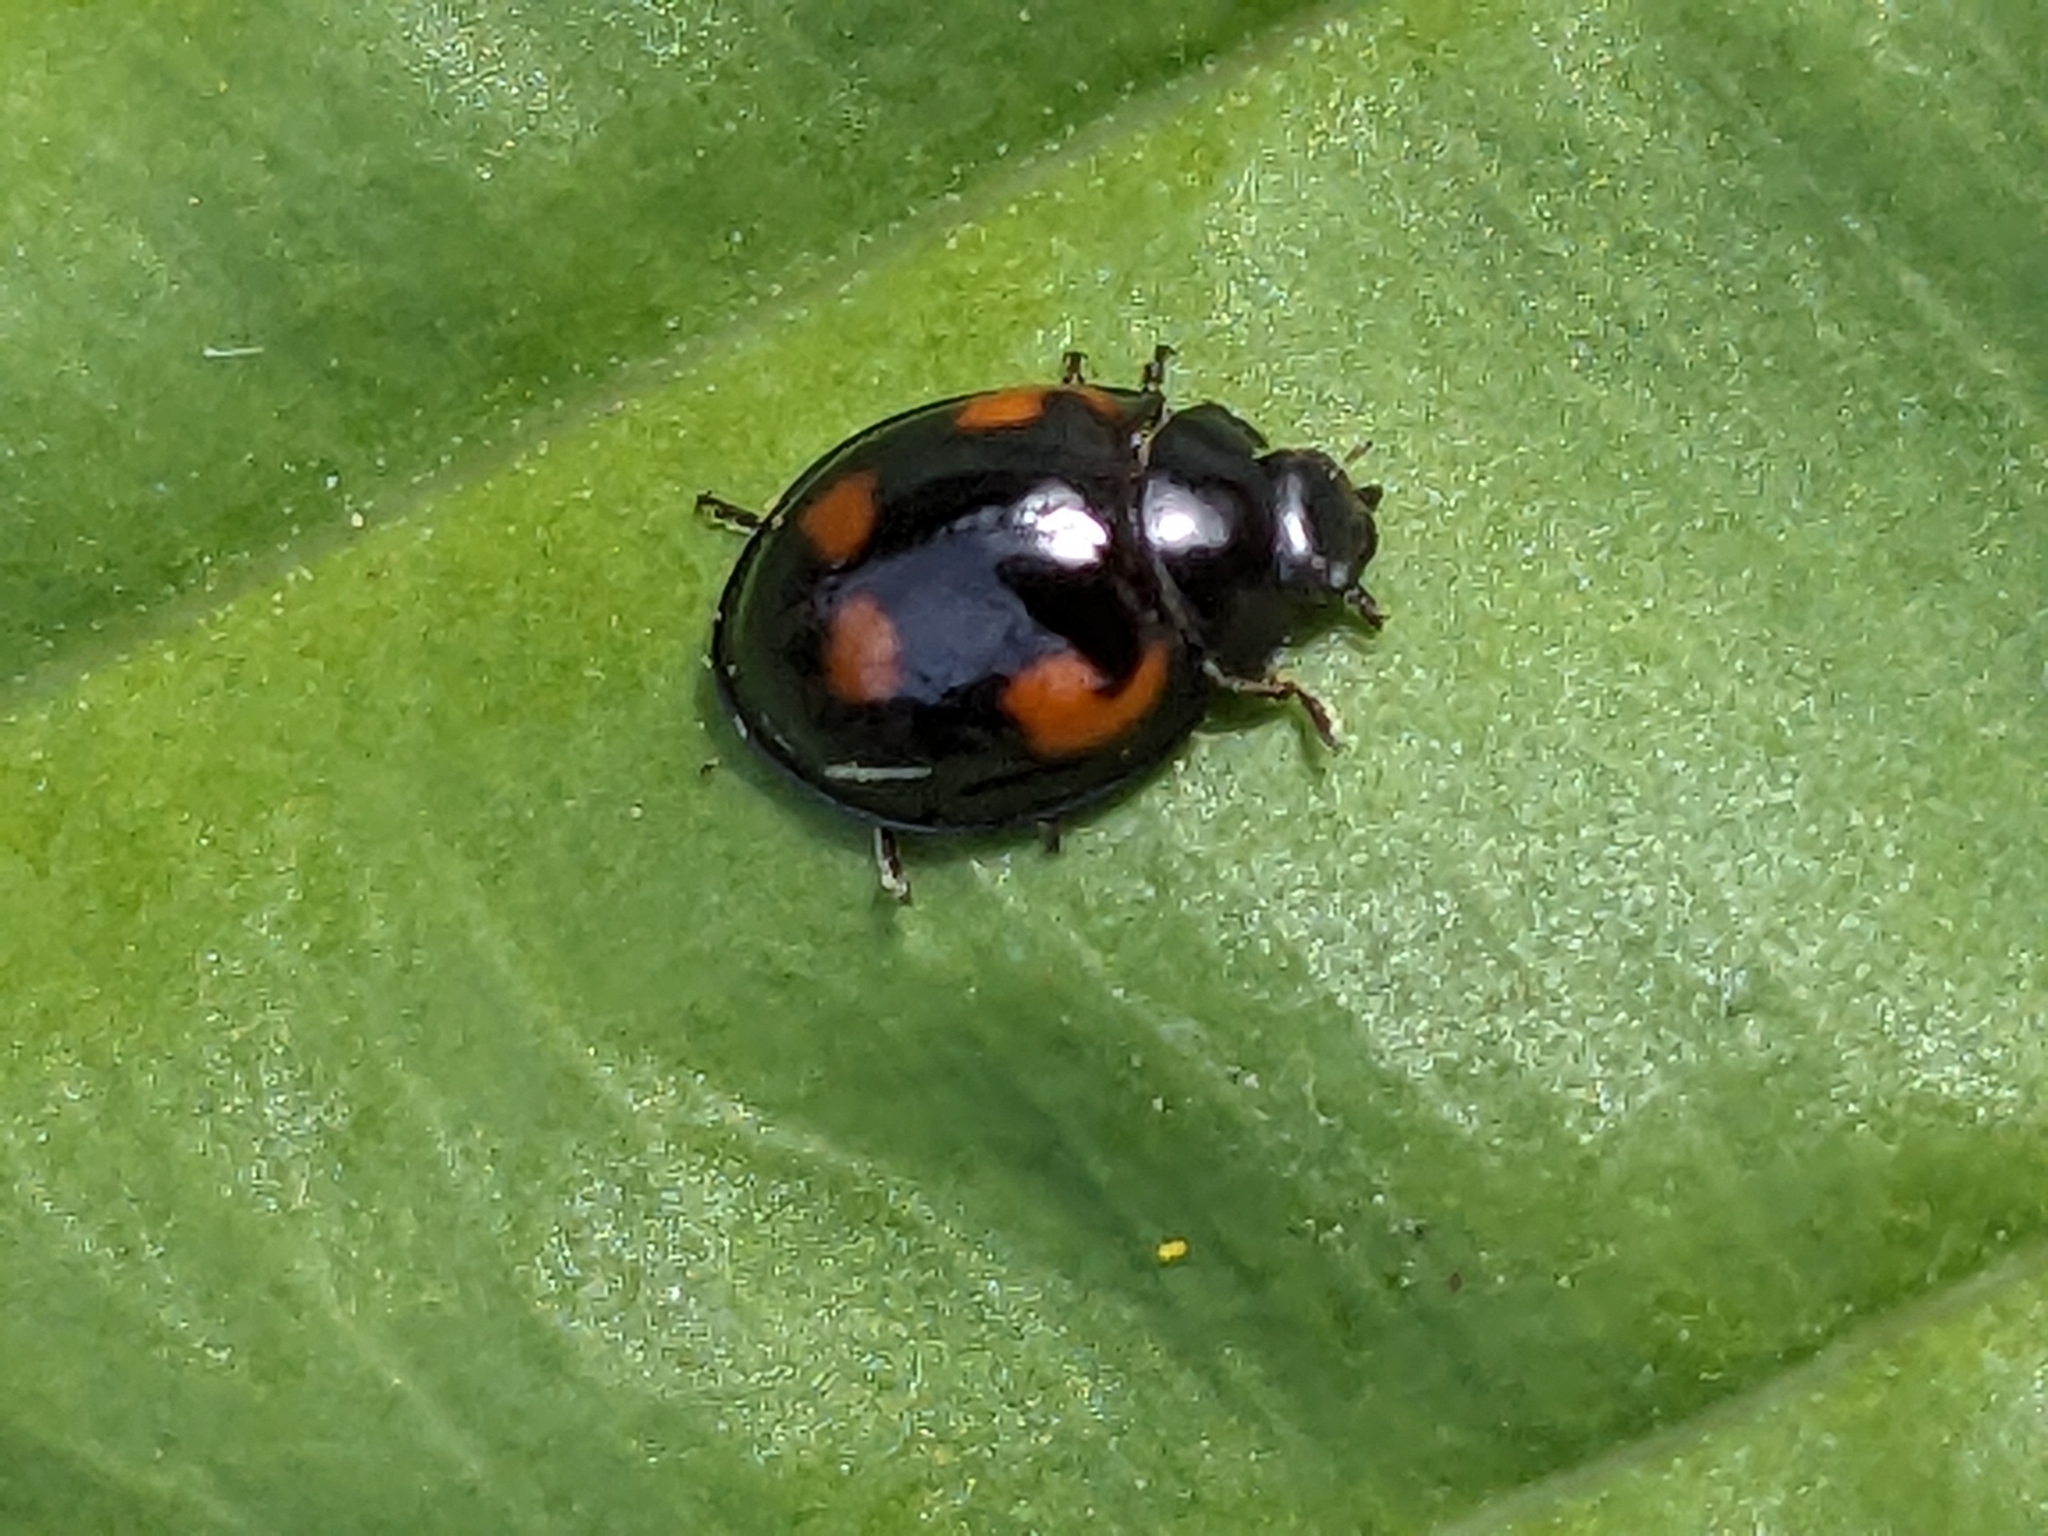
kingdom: Animalia
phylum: Arthropoda
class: Insecta
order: Coleoptera
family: Coccinellidae
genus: Brumus
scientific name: Brumus quadripustulatus
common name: Ladybird beetle
